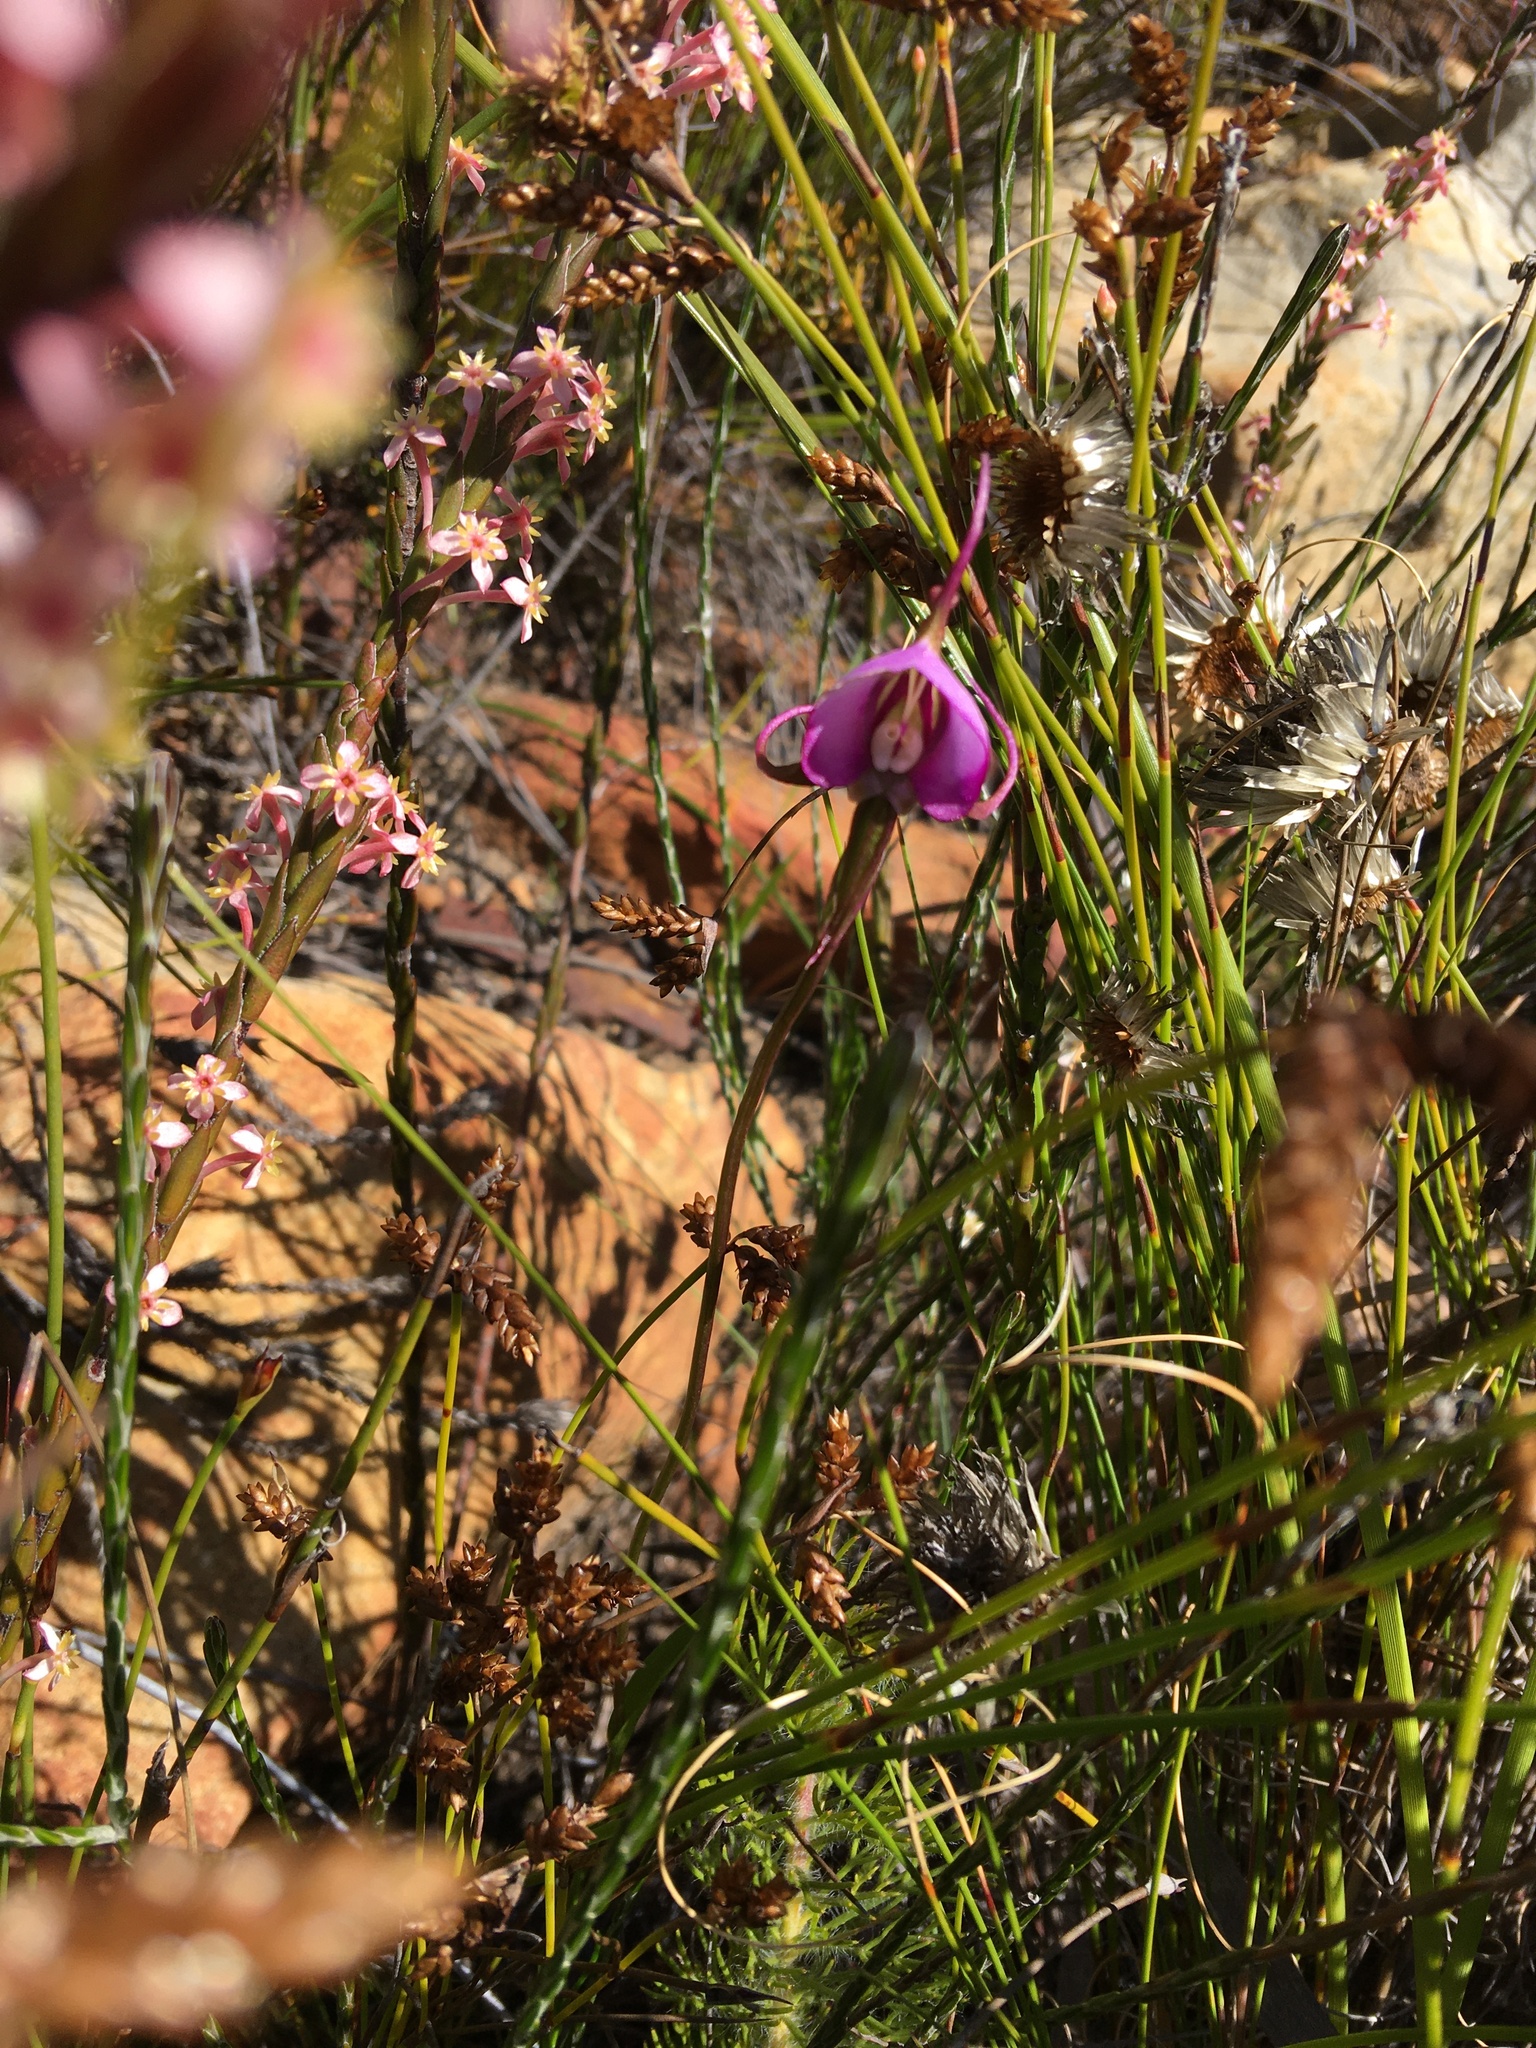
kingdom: Plantae
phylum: Tracheophyta
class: Liliopsida
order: Asparagales
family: Orchidaceae
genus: Disperis
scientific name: Disperis capensis
